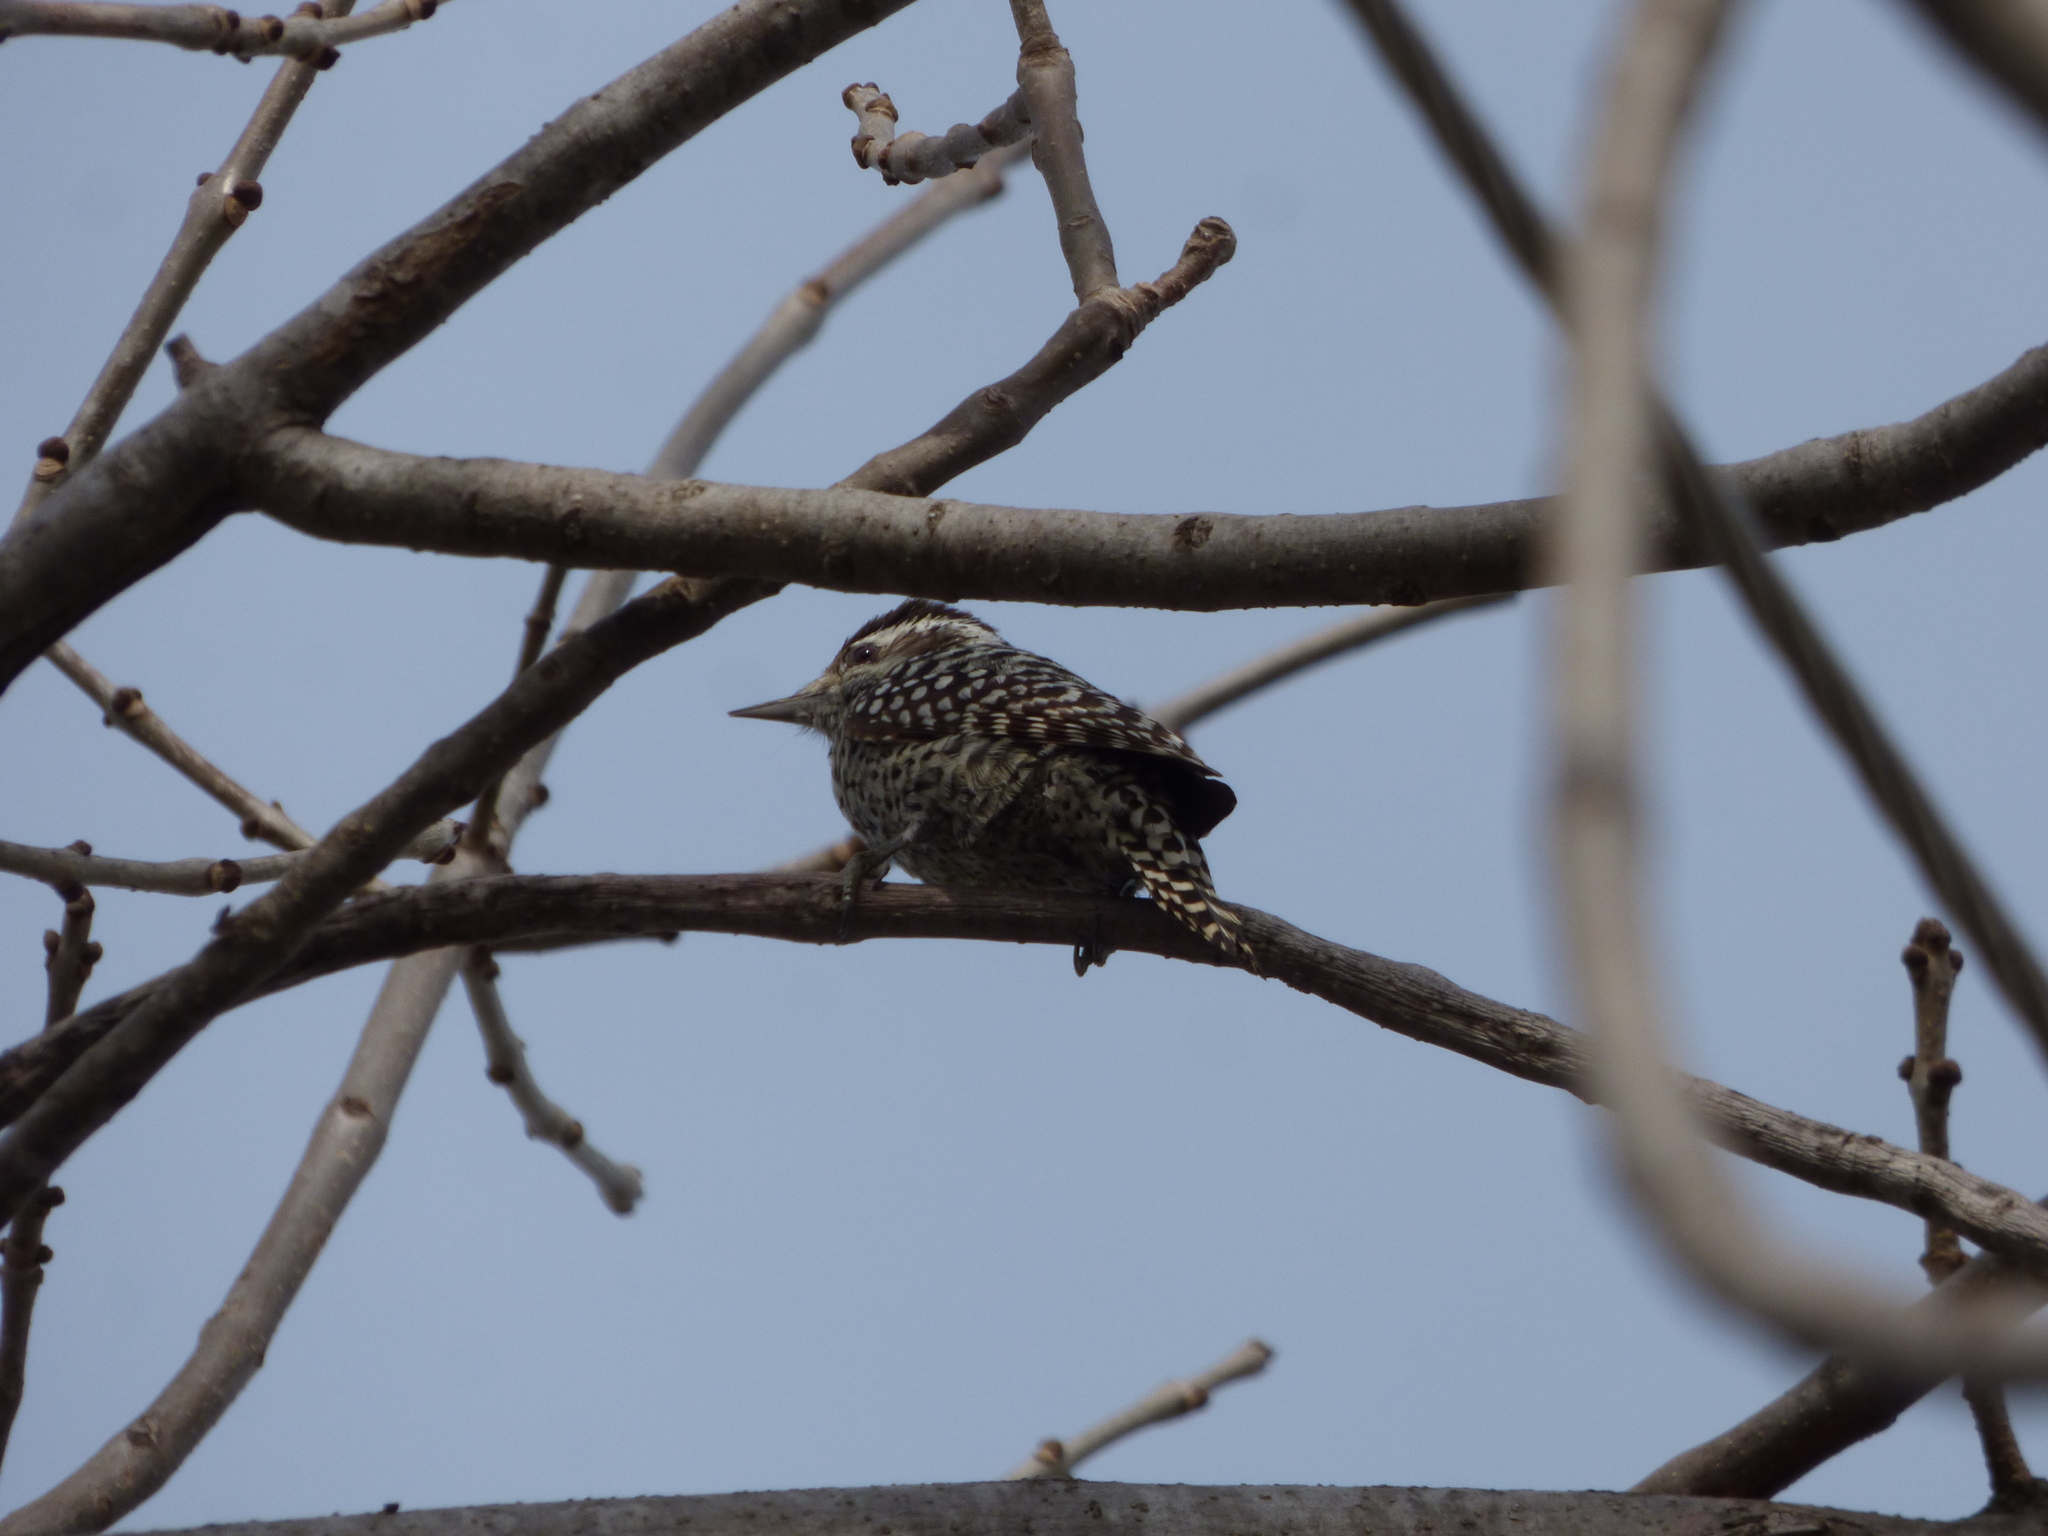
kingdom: Animalia
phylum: Chordata
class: Aves
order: Piciformes
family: Picidae
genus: Veniliornis
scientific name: Veniliornis mixtus
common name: Checkered woodpecker
